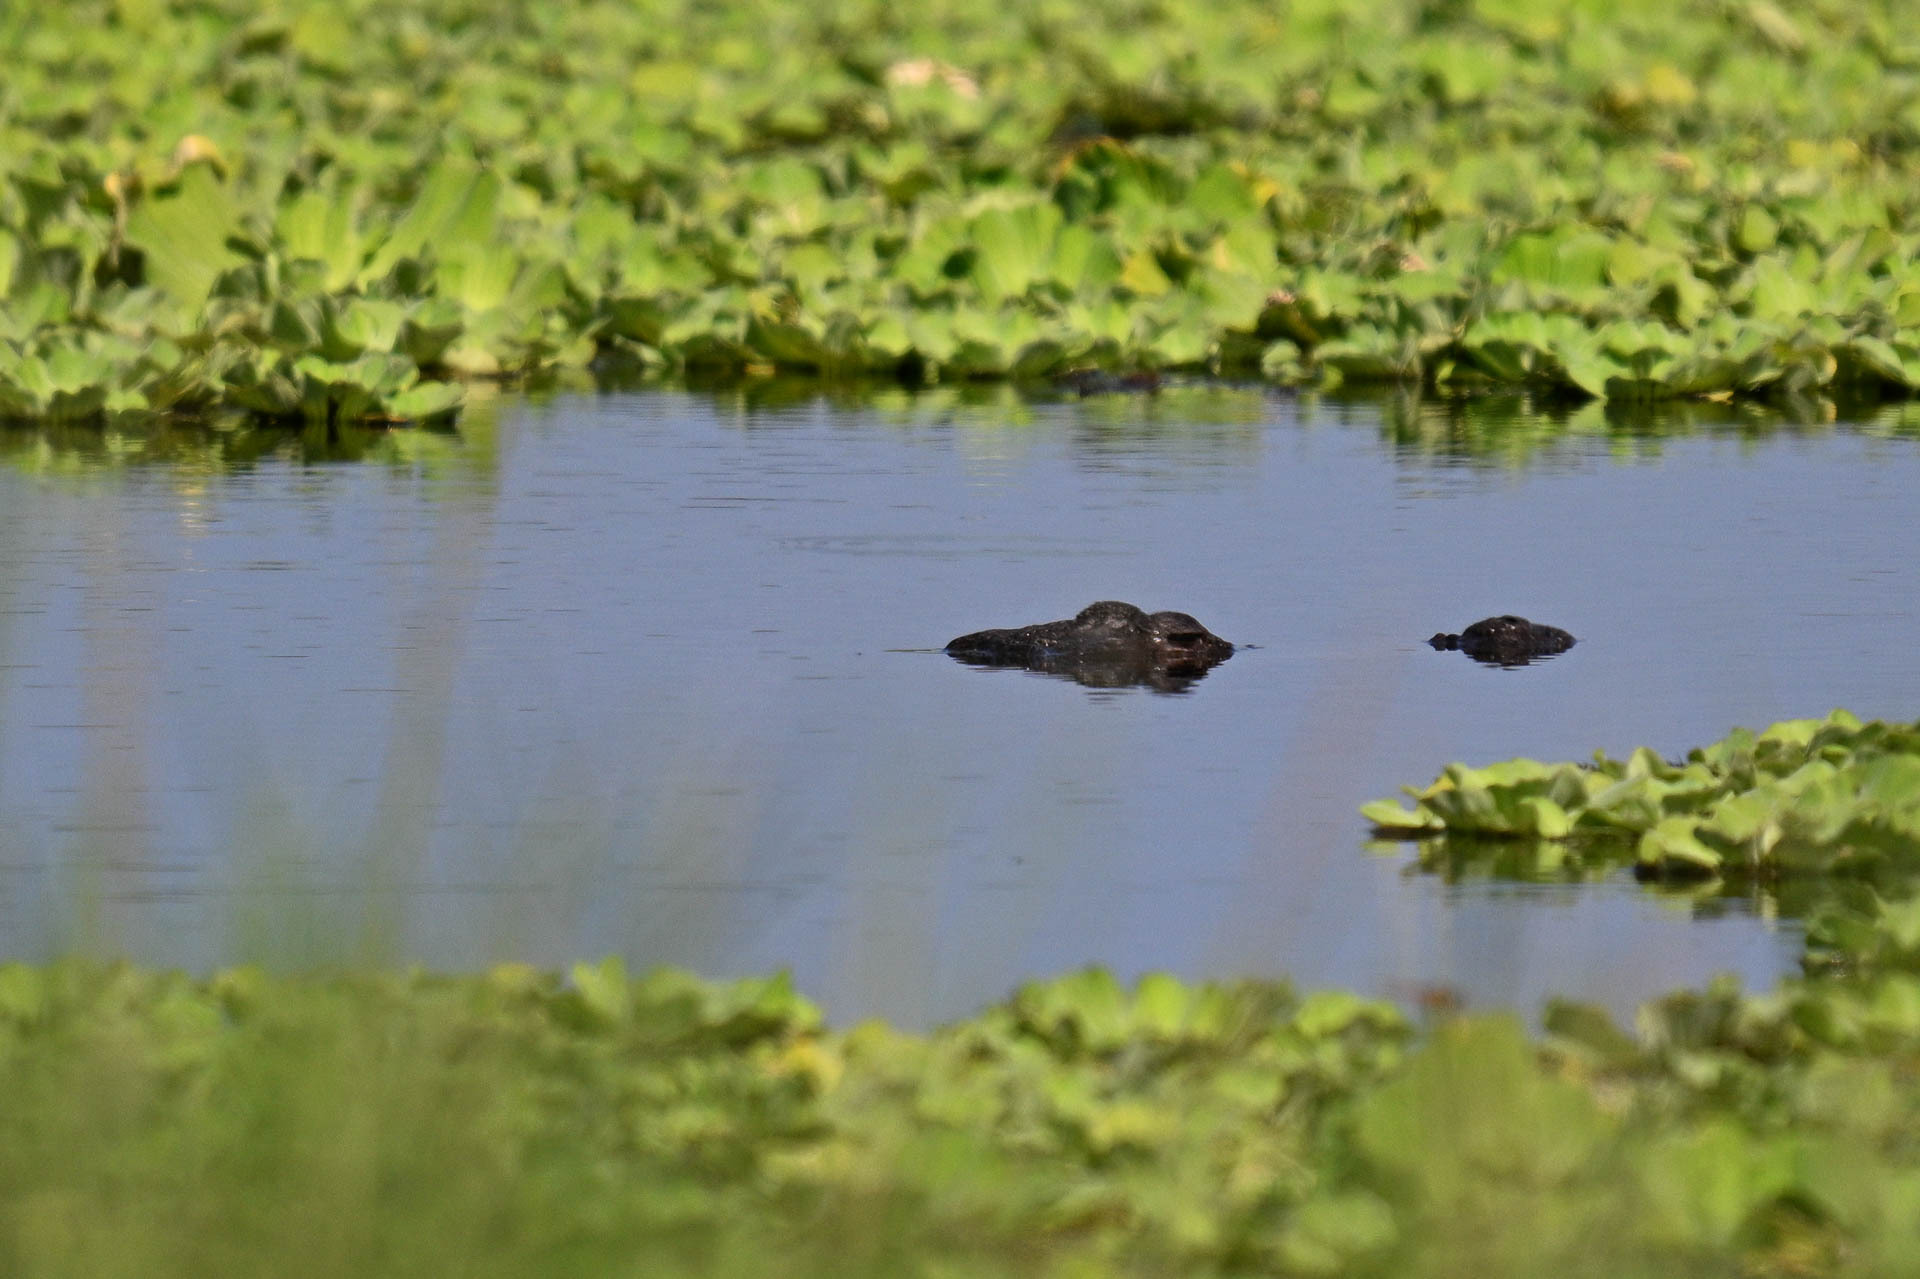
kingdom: Animalia
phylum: Chordata
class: Crocodylia
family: Crocodylidae
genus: Crocodylus
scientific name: Crocodylus suchus
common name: West african crocodile
